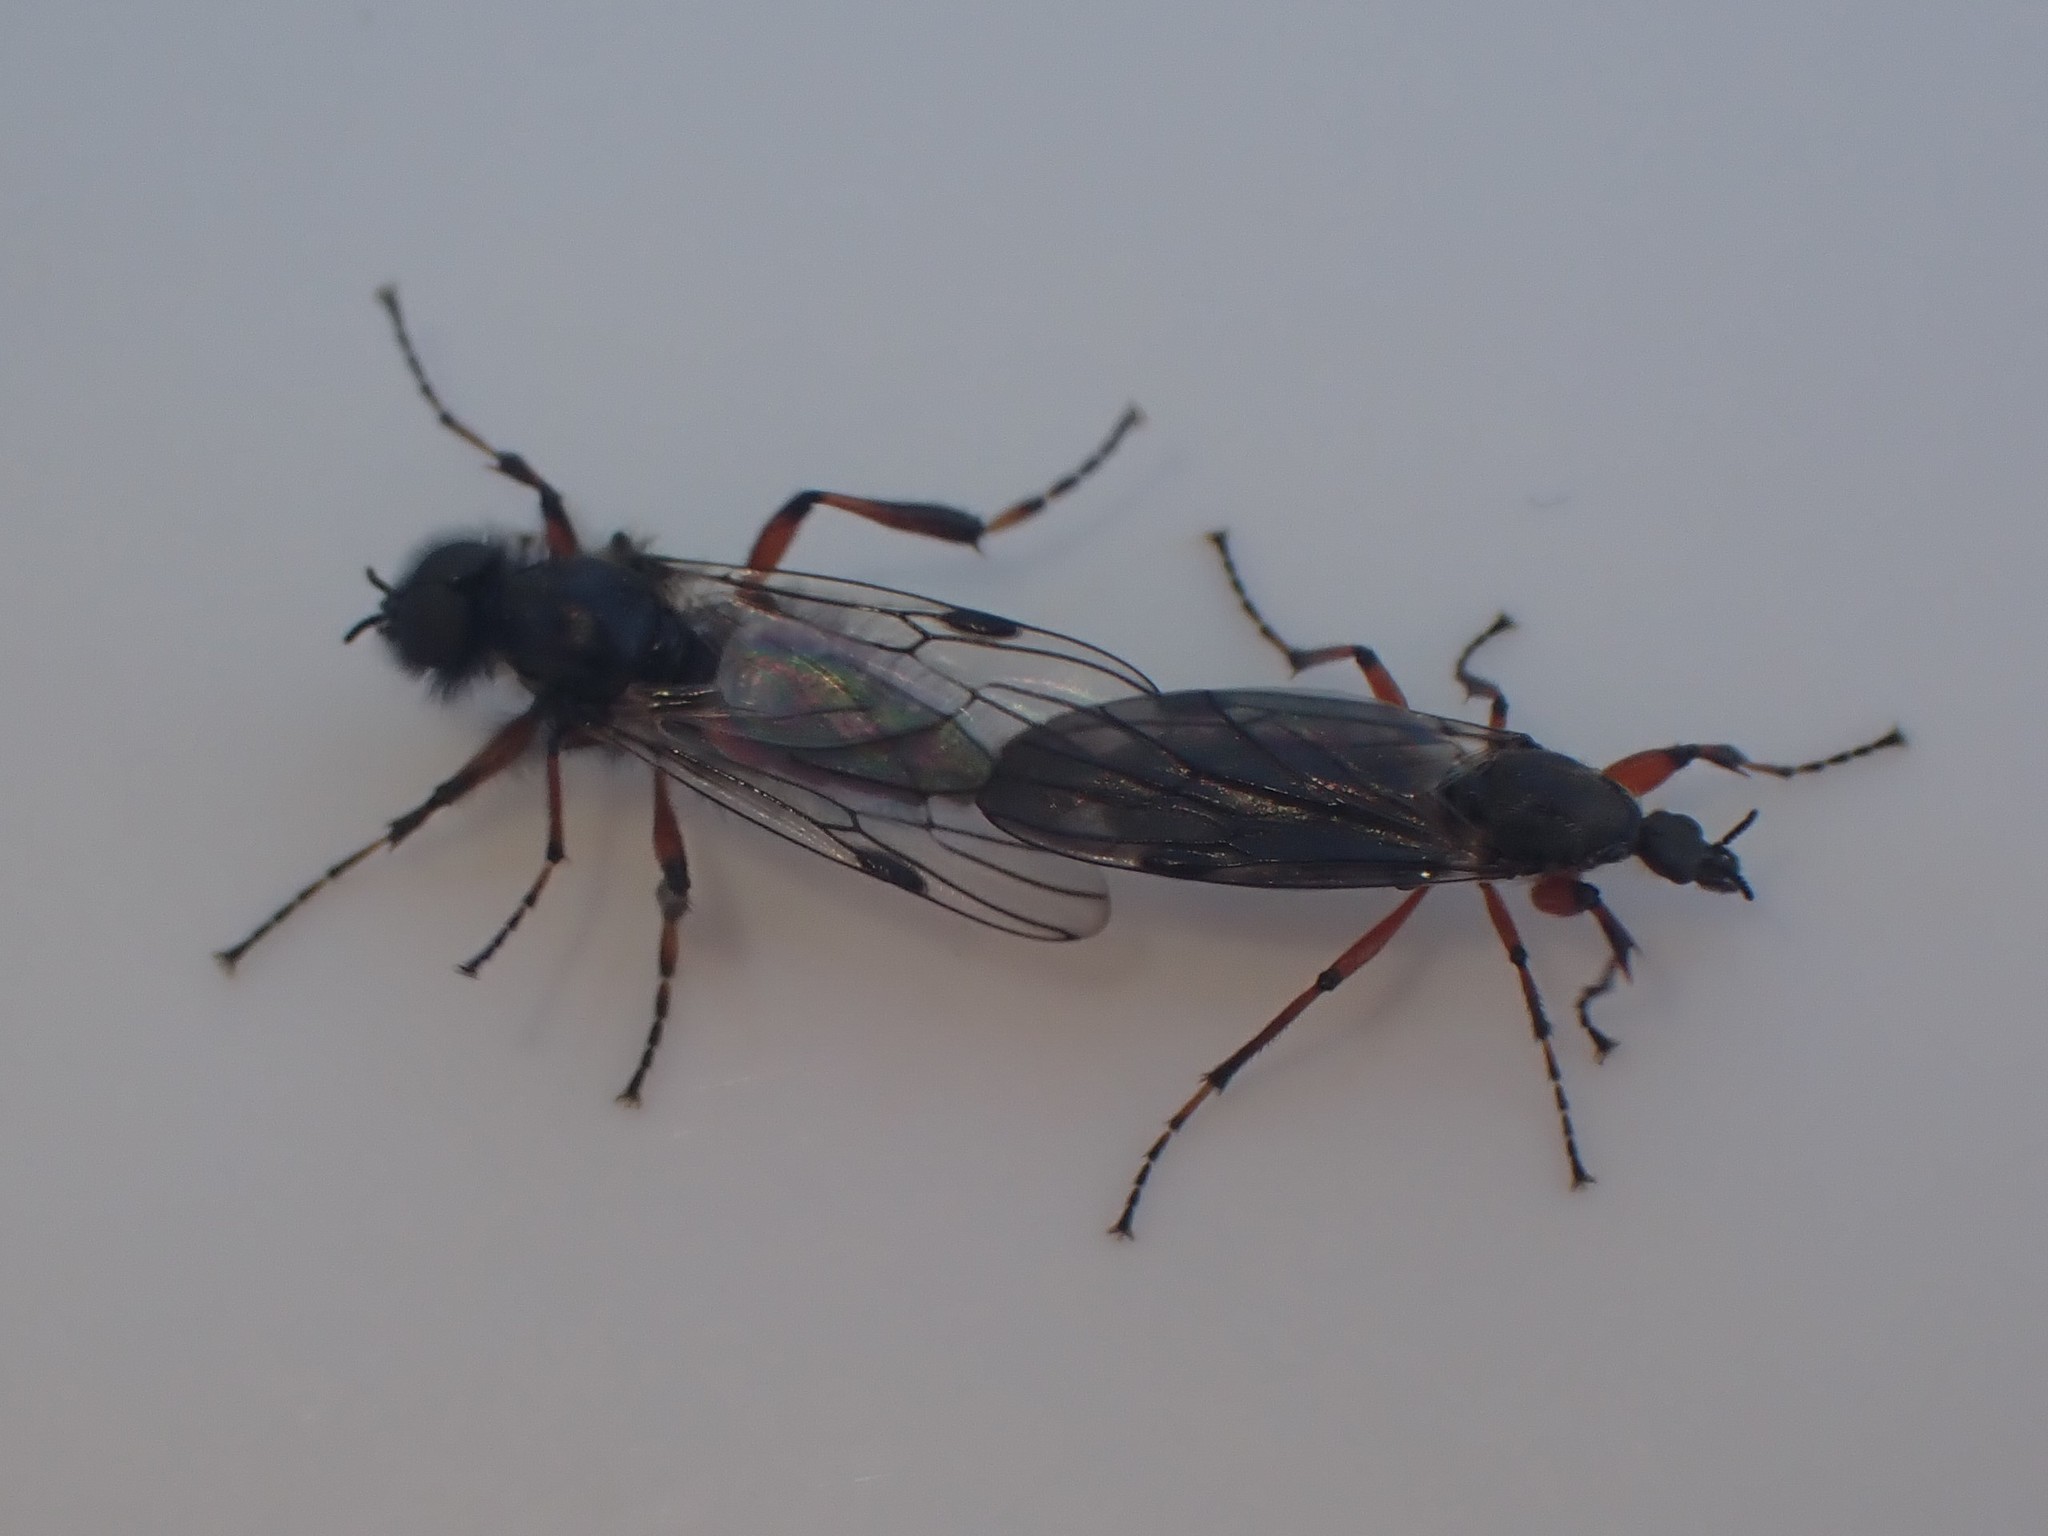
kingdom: Animalia
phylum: Arthropoda
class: Insecta
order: Diptera
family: Bibionidae
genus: Bibio
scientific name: Bibio
